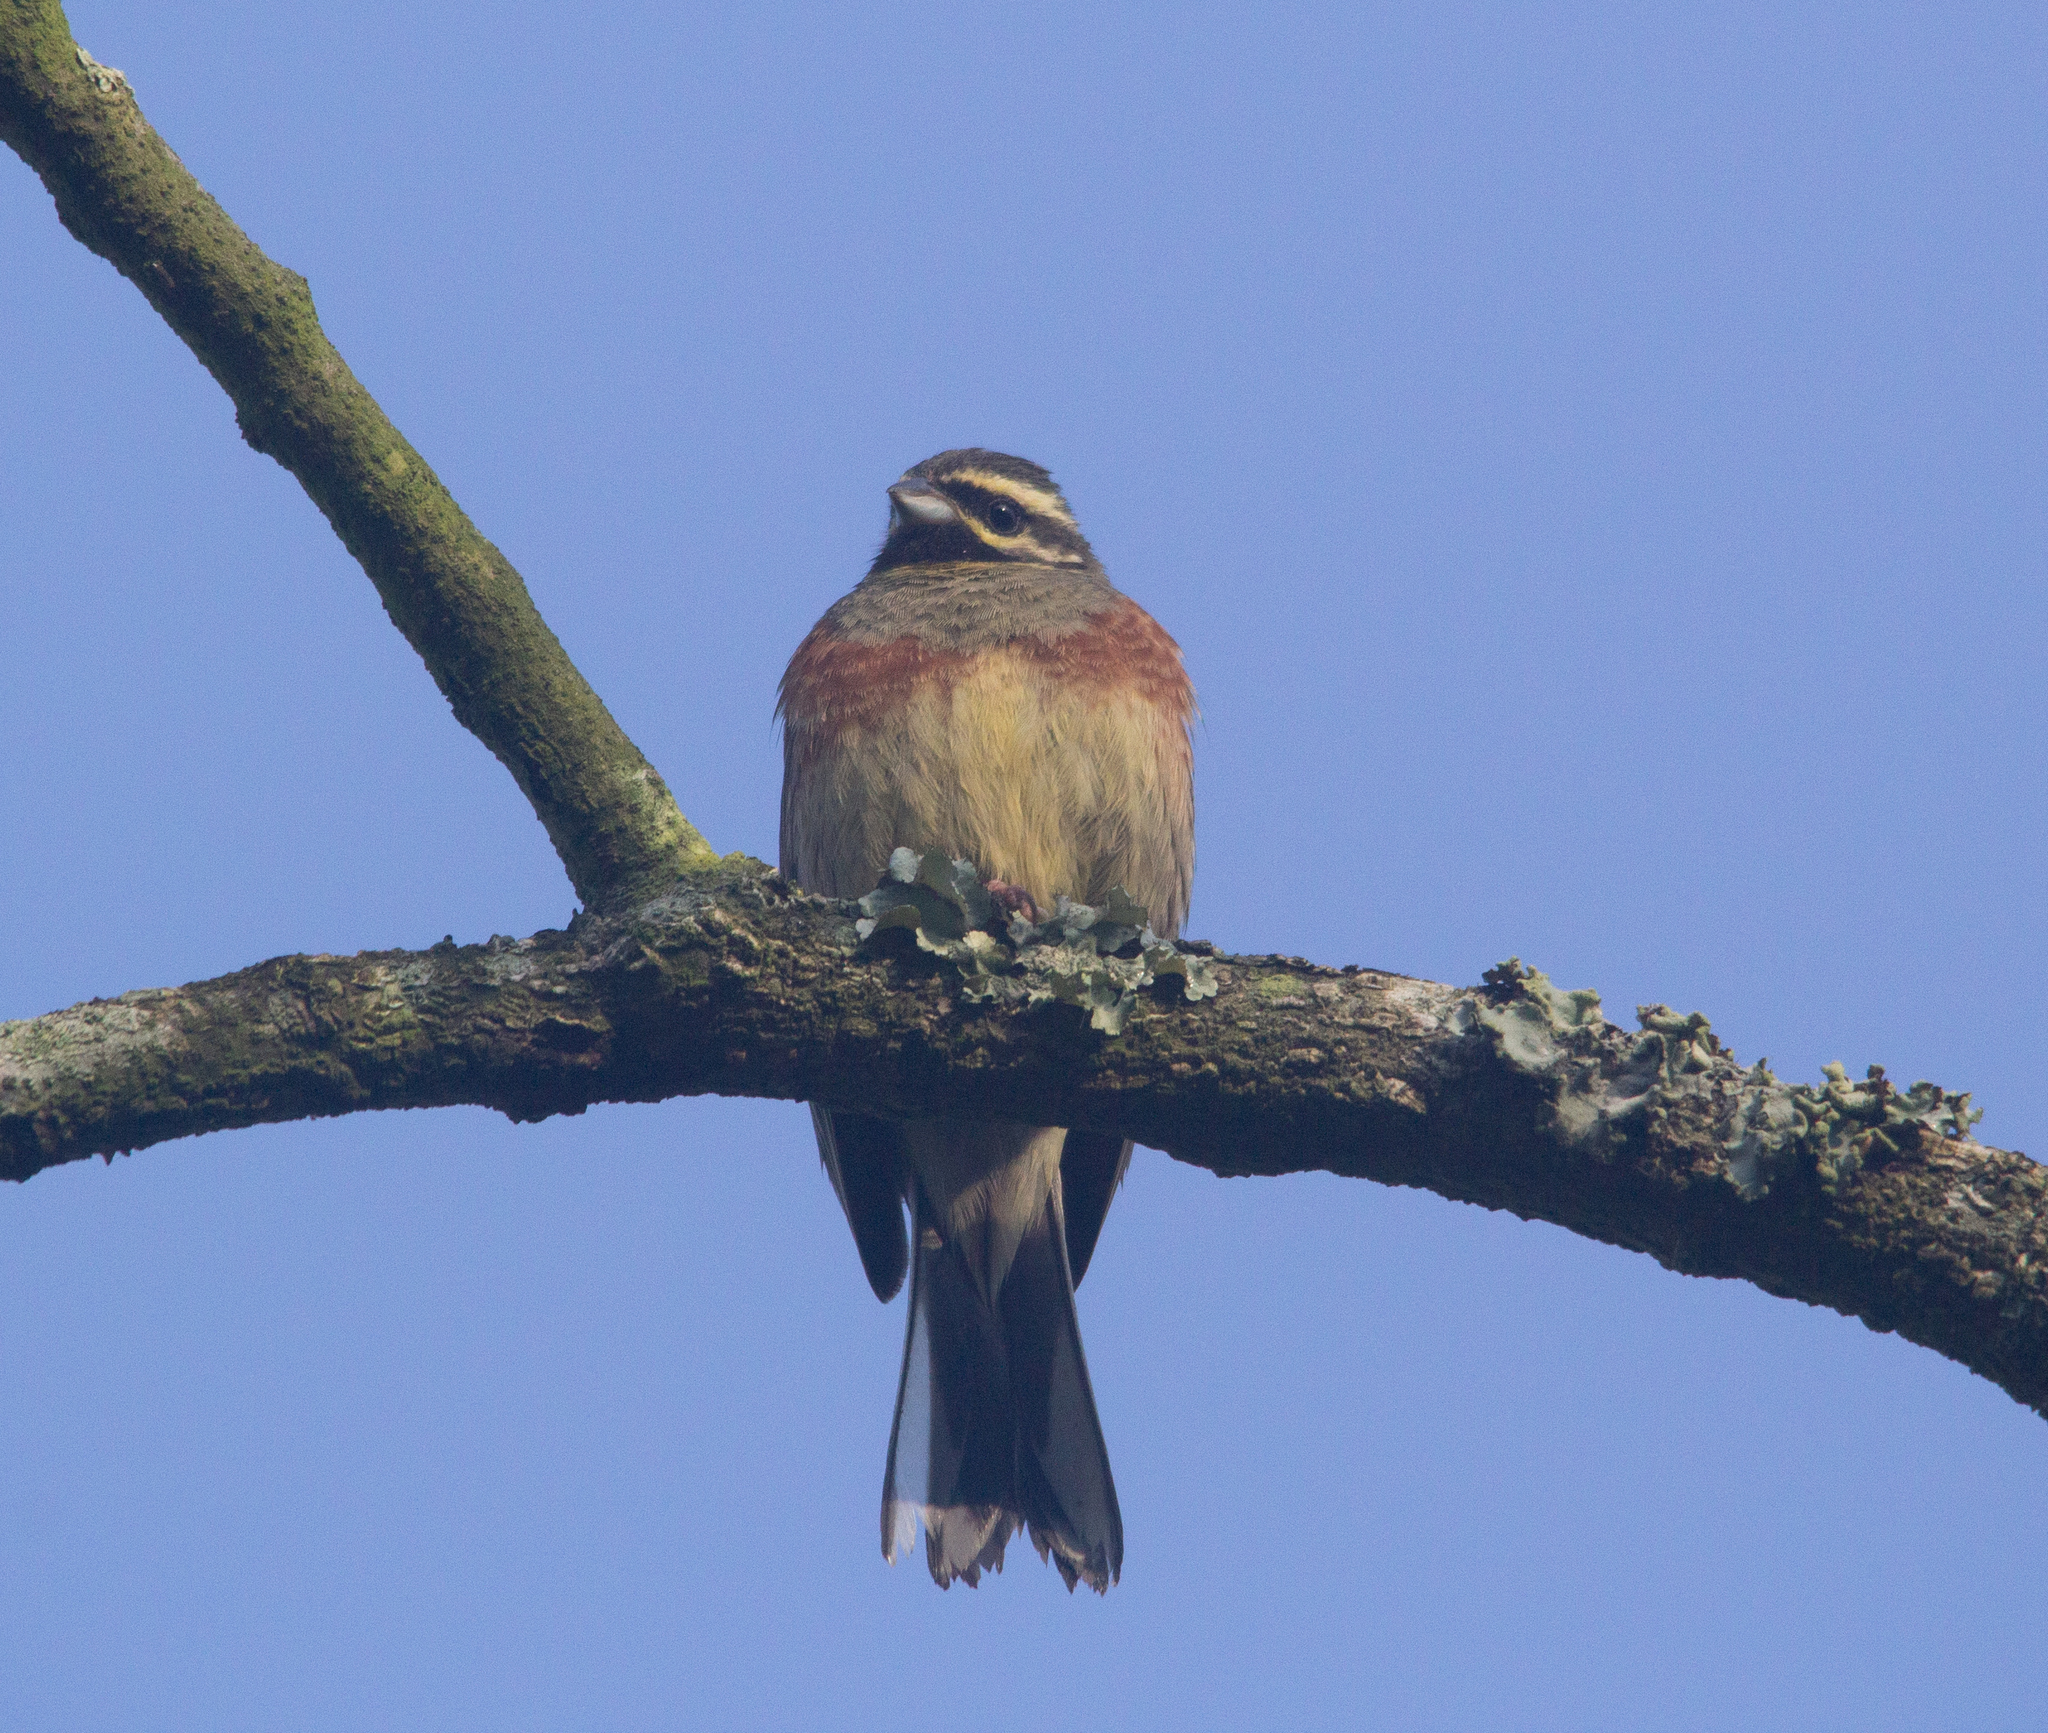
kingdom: Animalia
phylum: Chordata
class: Aves
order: Passeriformes
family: Emberizidae
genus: Emberiza
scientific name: Emberiza cirlus
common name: Cirl bunting
